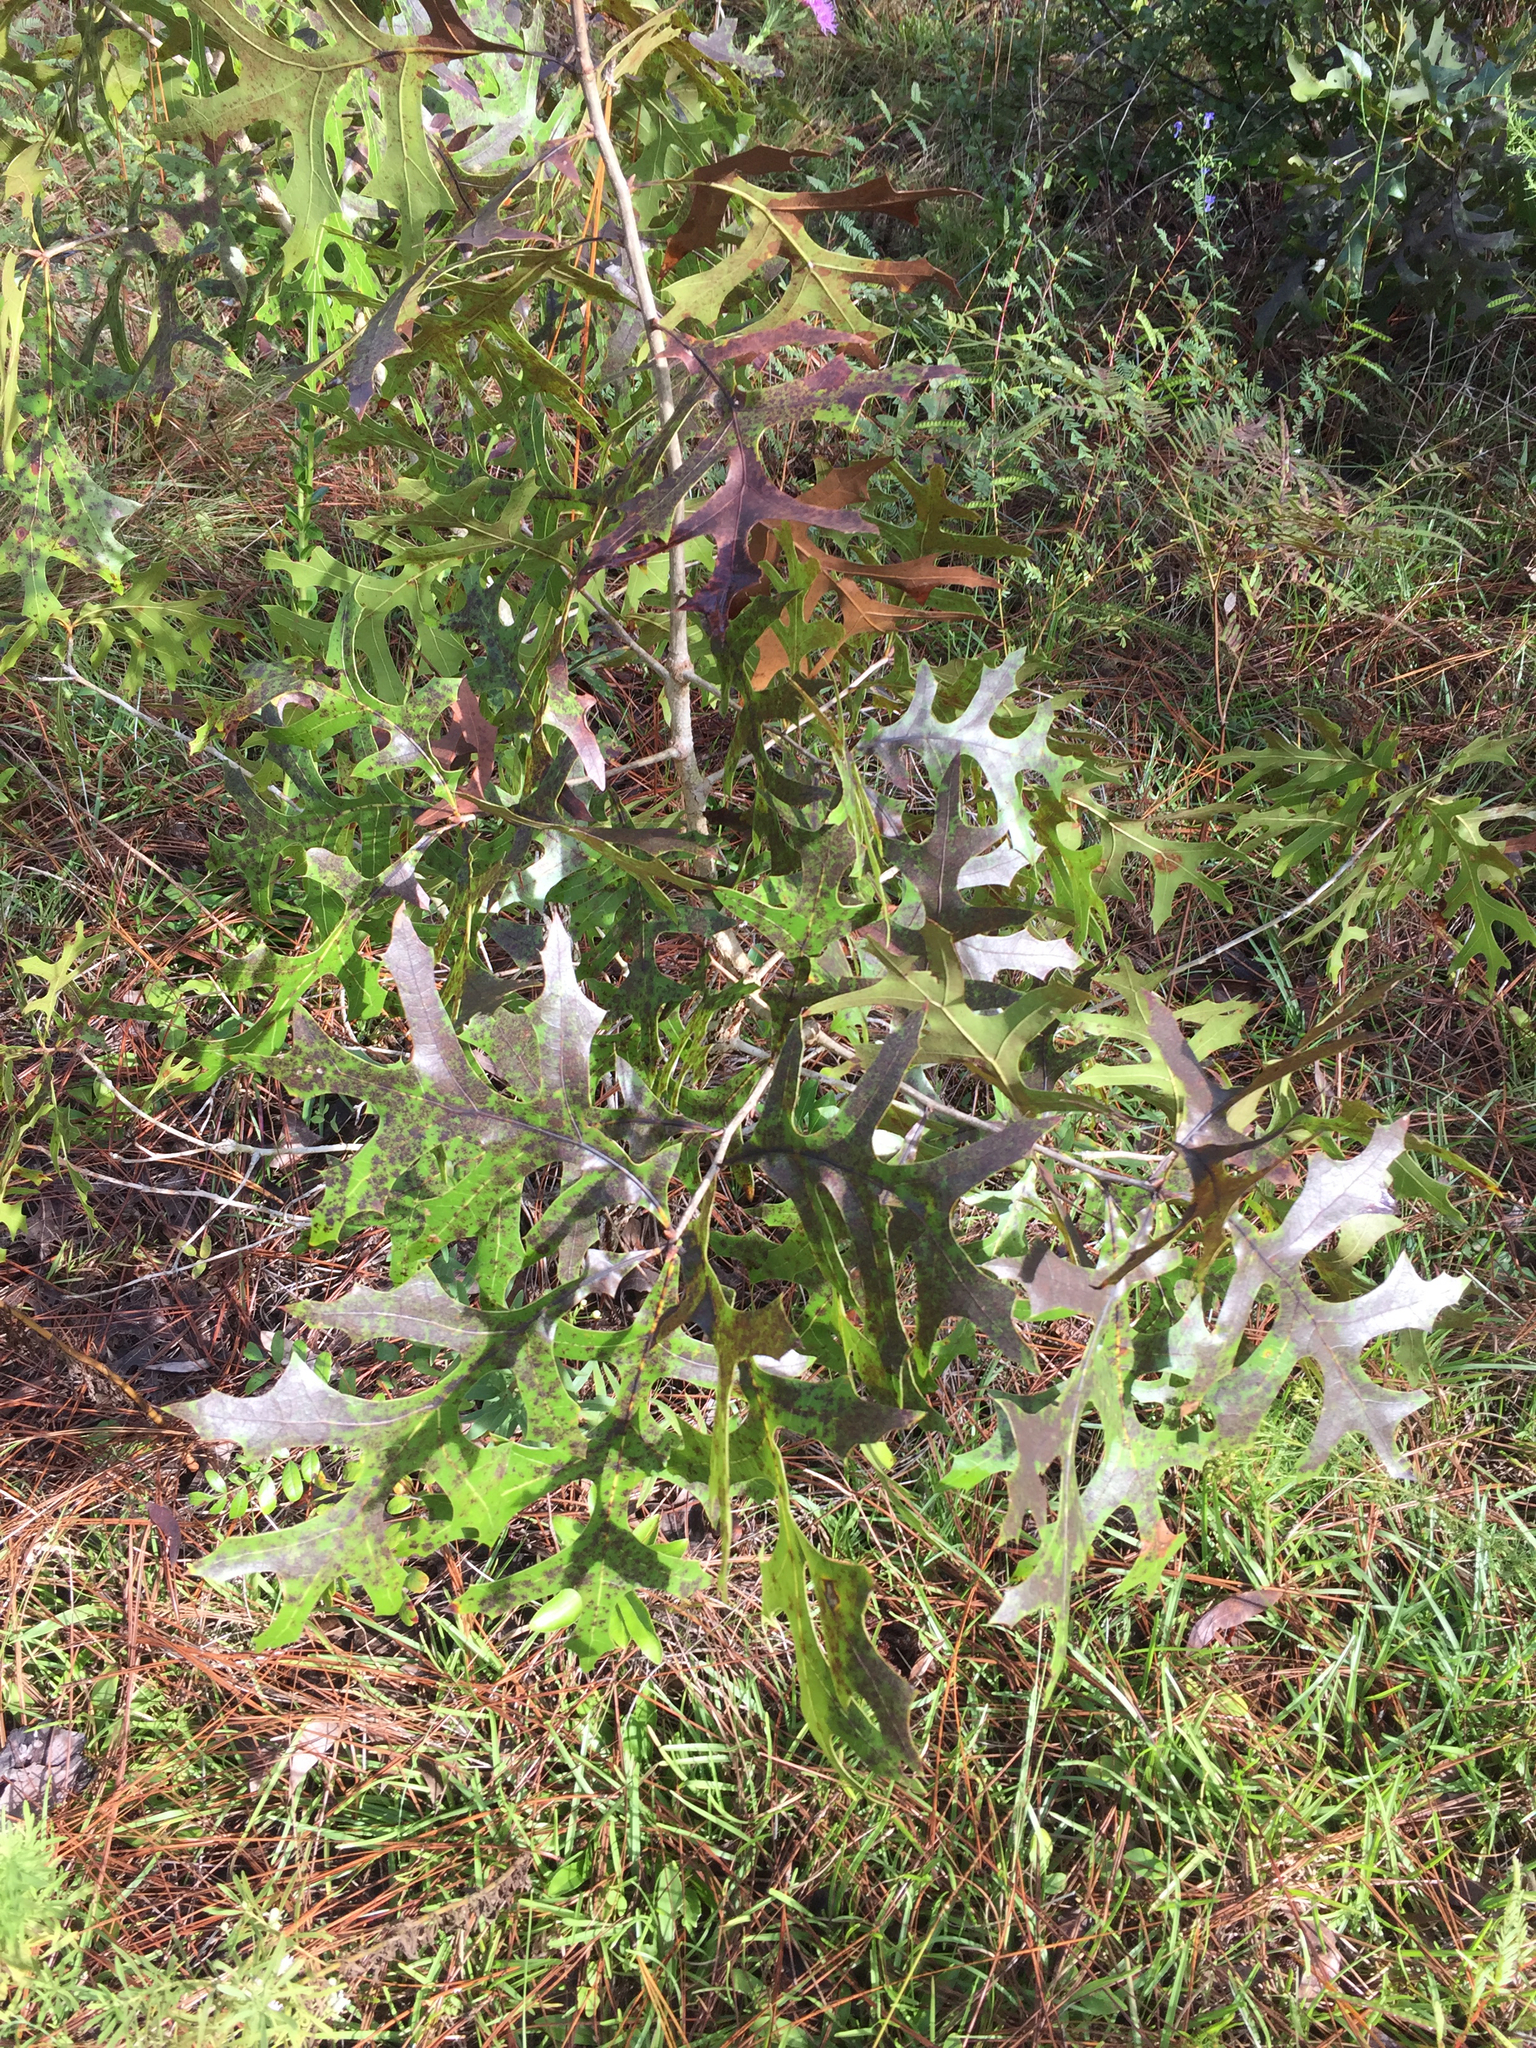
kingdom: Plantae
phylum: Tracheophyta
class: Magnoliopsida
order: Fagales
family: Fagaceae
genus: Quercus
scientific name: Quercus laevis
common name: Turkey oak
